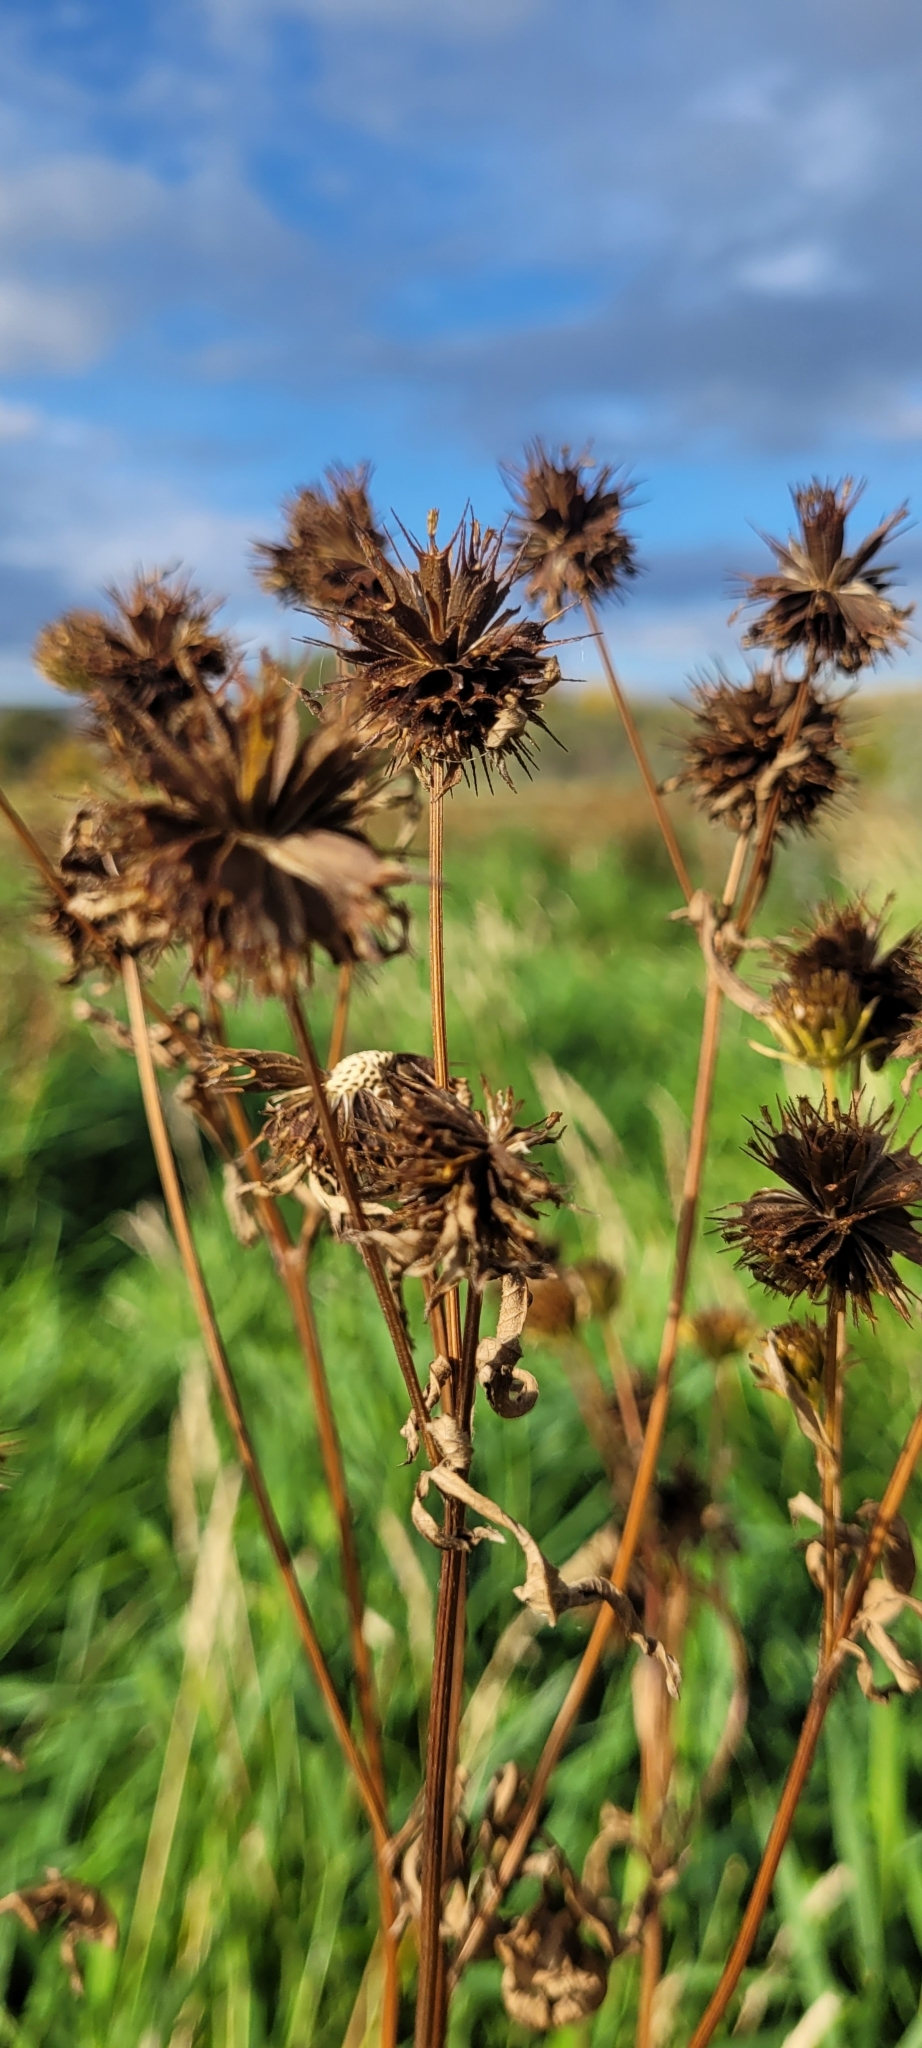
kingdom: Plantae
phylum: Tracheophyta
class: Magnoliopsida
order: Asterales
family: Asteraceae
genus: Bidens
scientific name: Bidens frondosa
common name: Beggarticks
